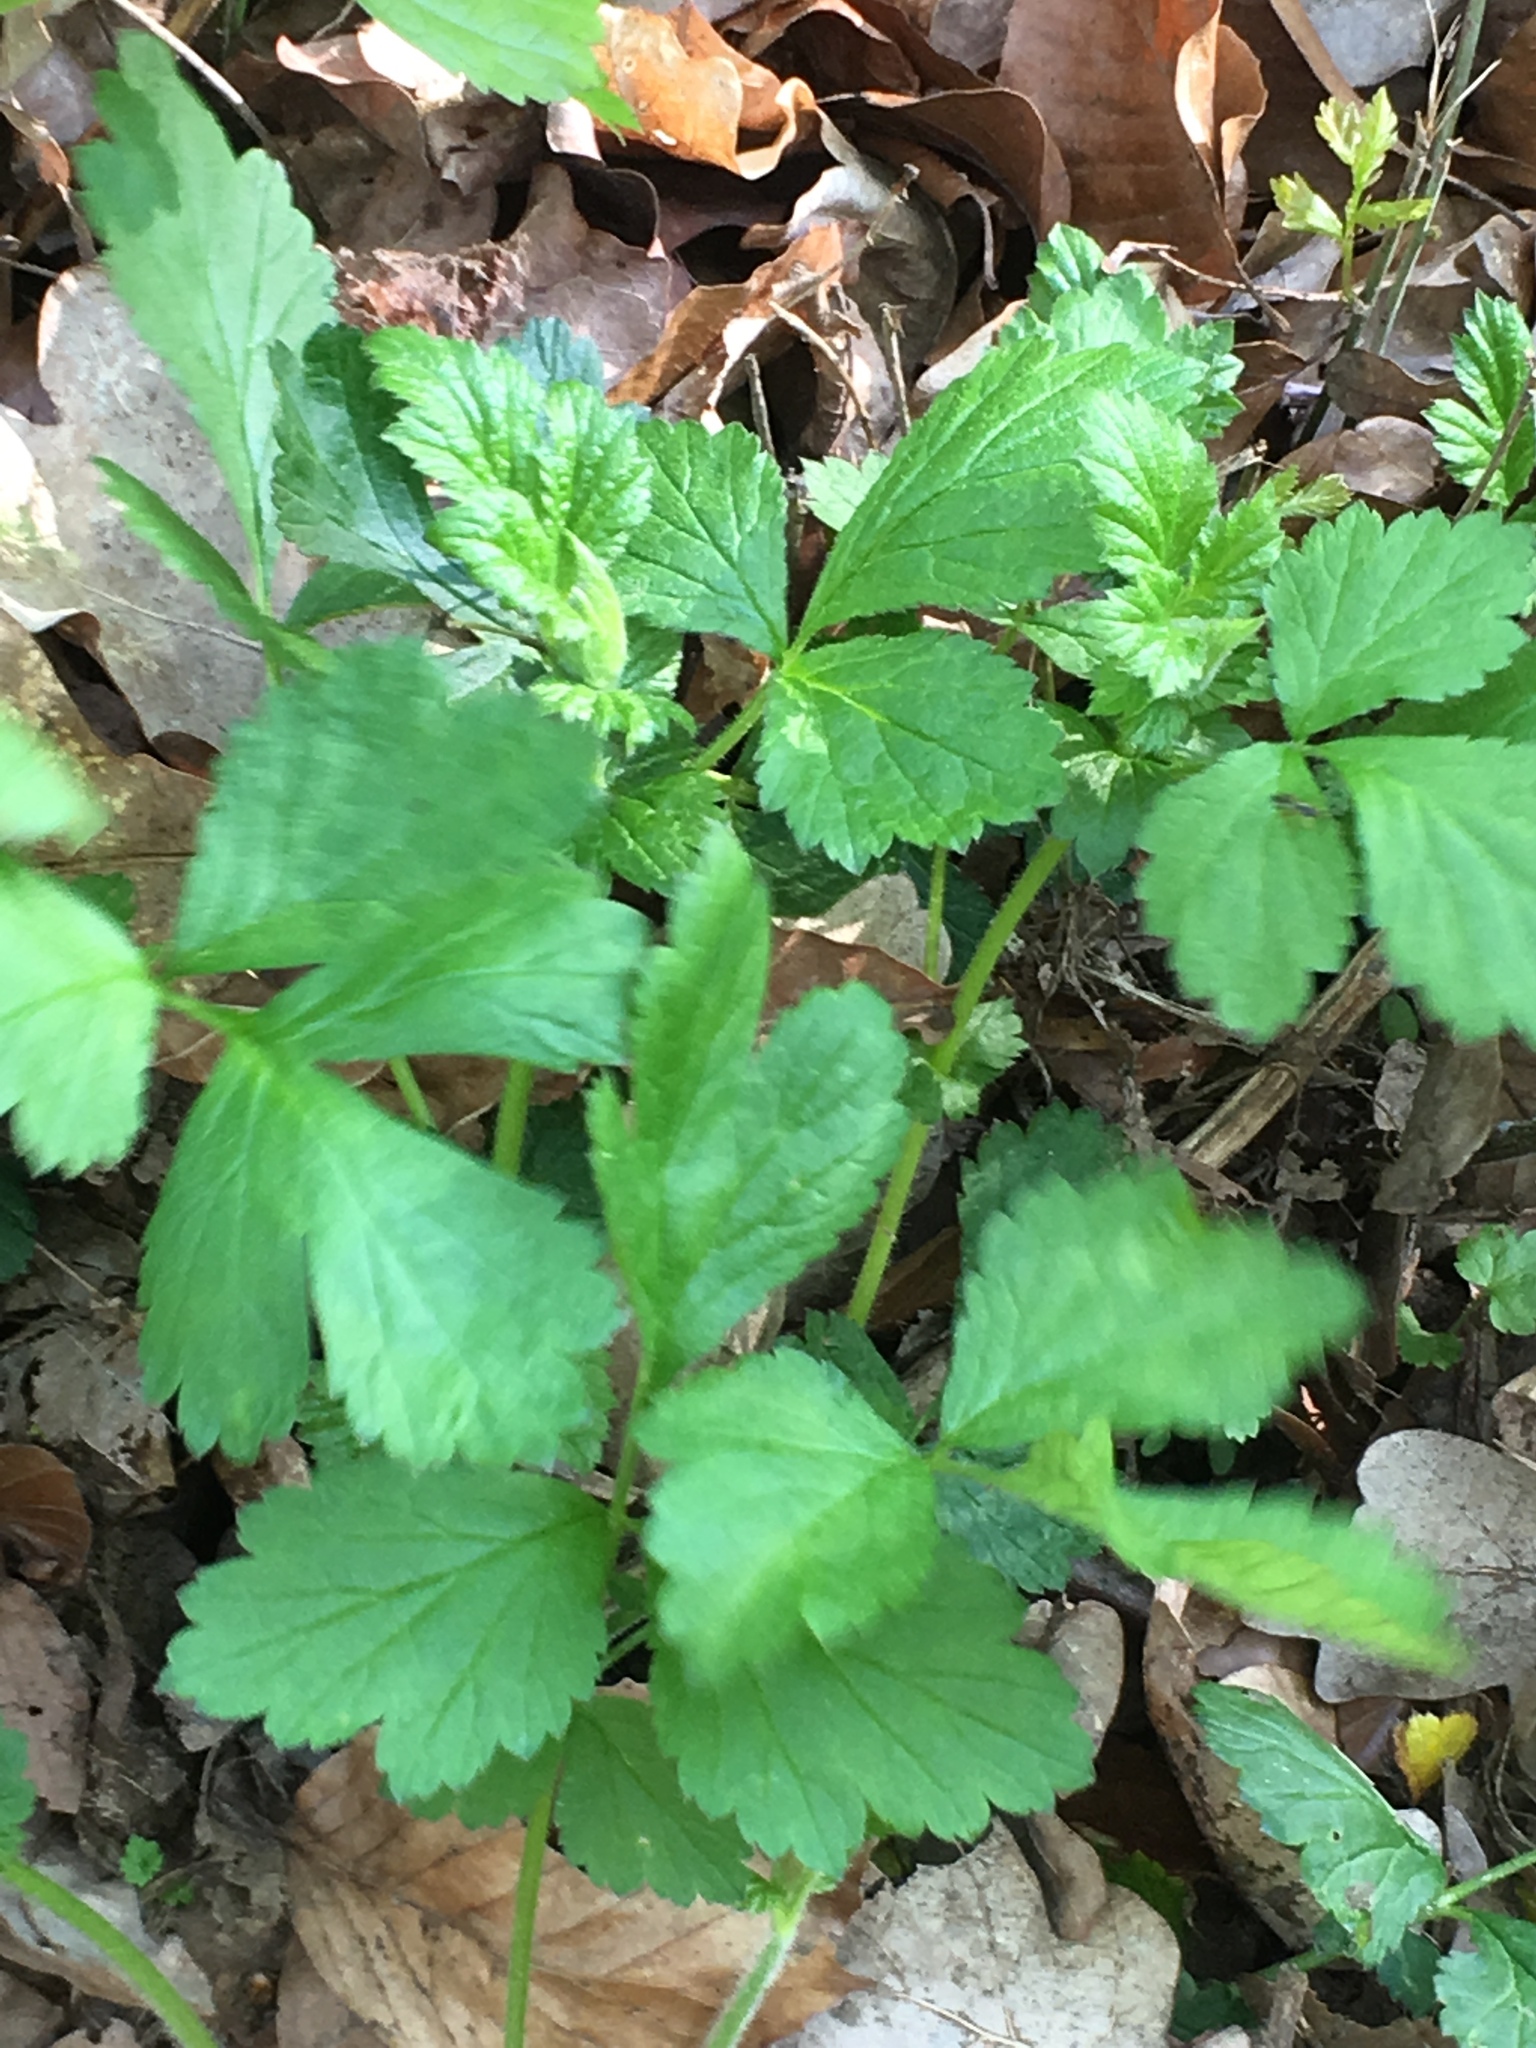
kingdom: Plantae
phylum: Tracheophyta
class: Magnoliopsida
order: Rosales
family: Rosaceae
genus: Geum
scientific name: Geum urbanum
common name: Wood avens
